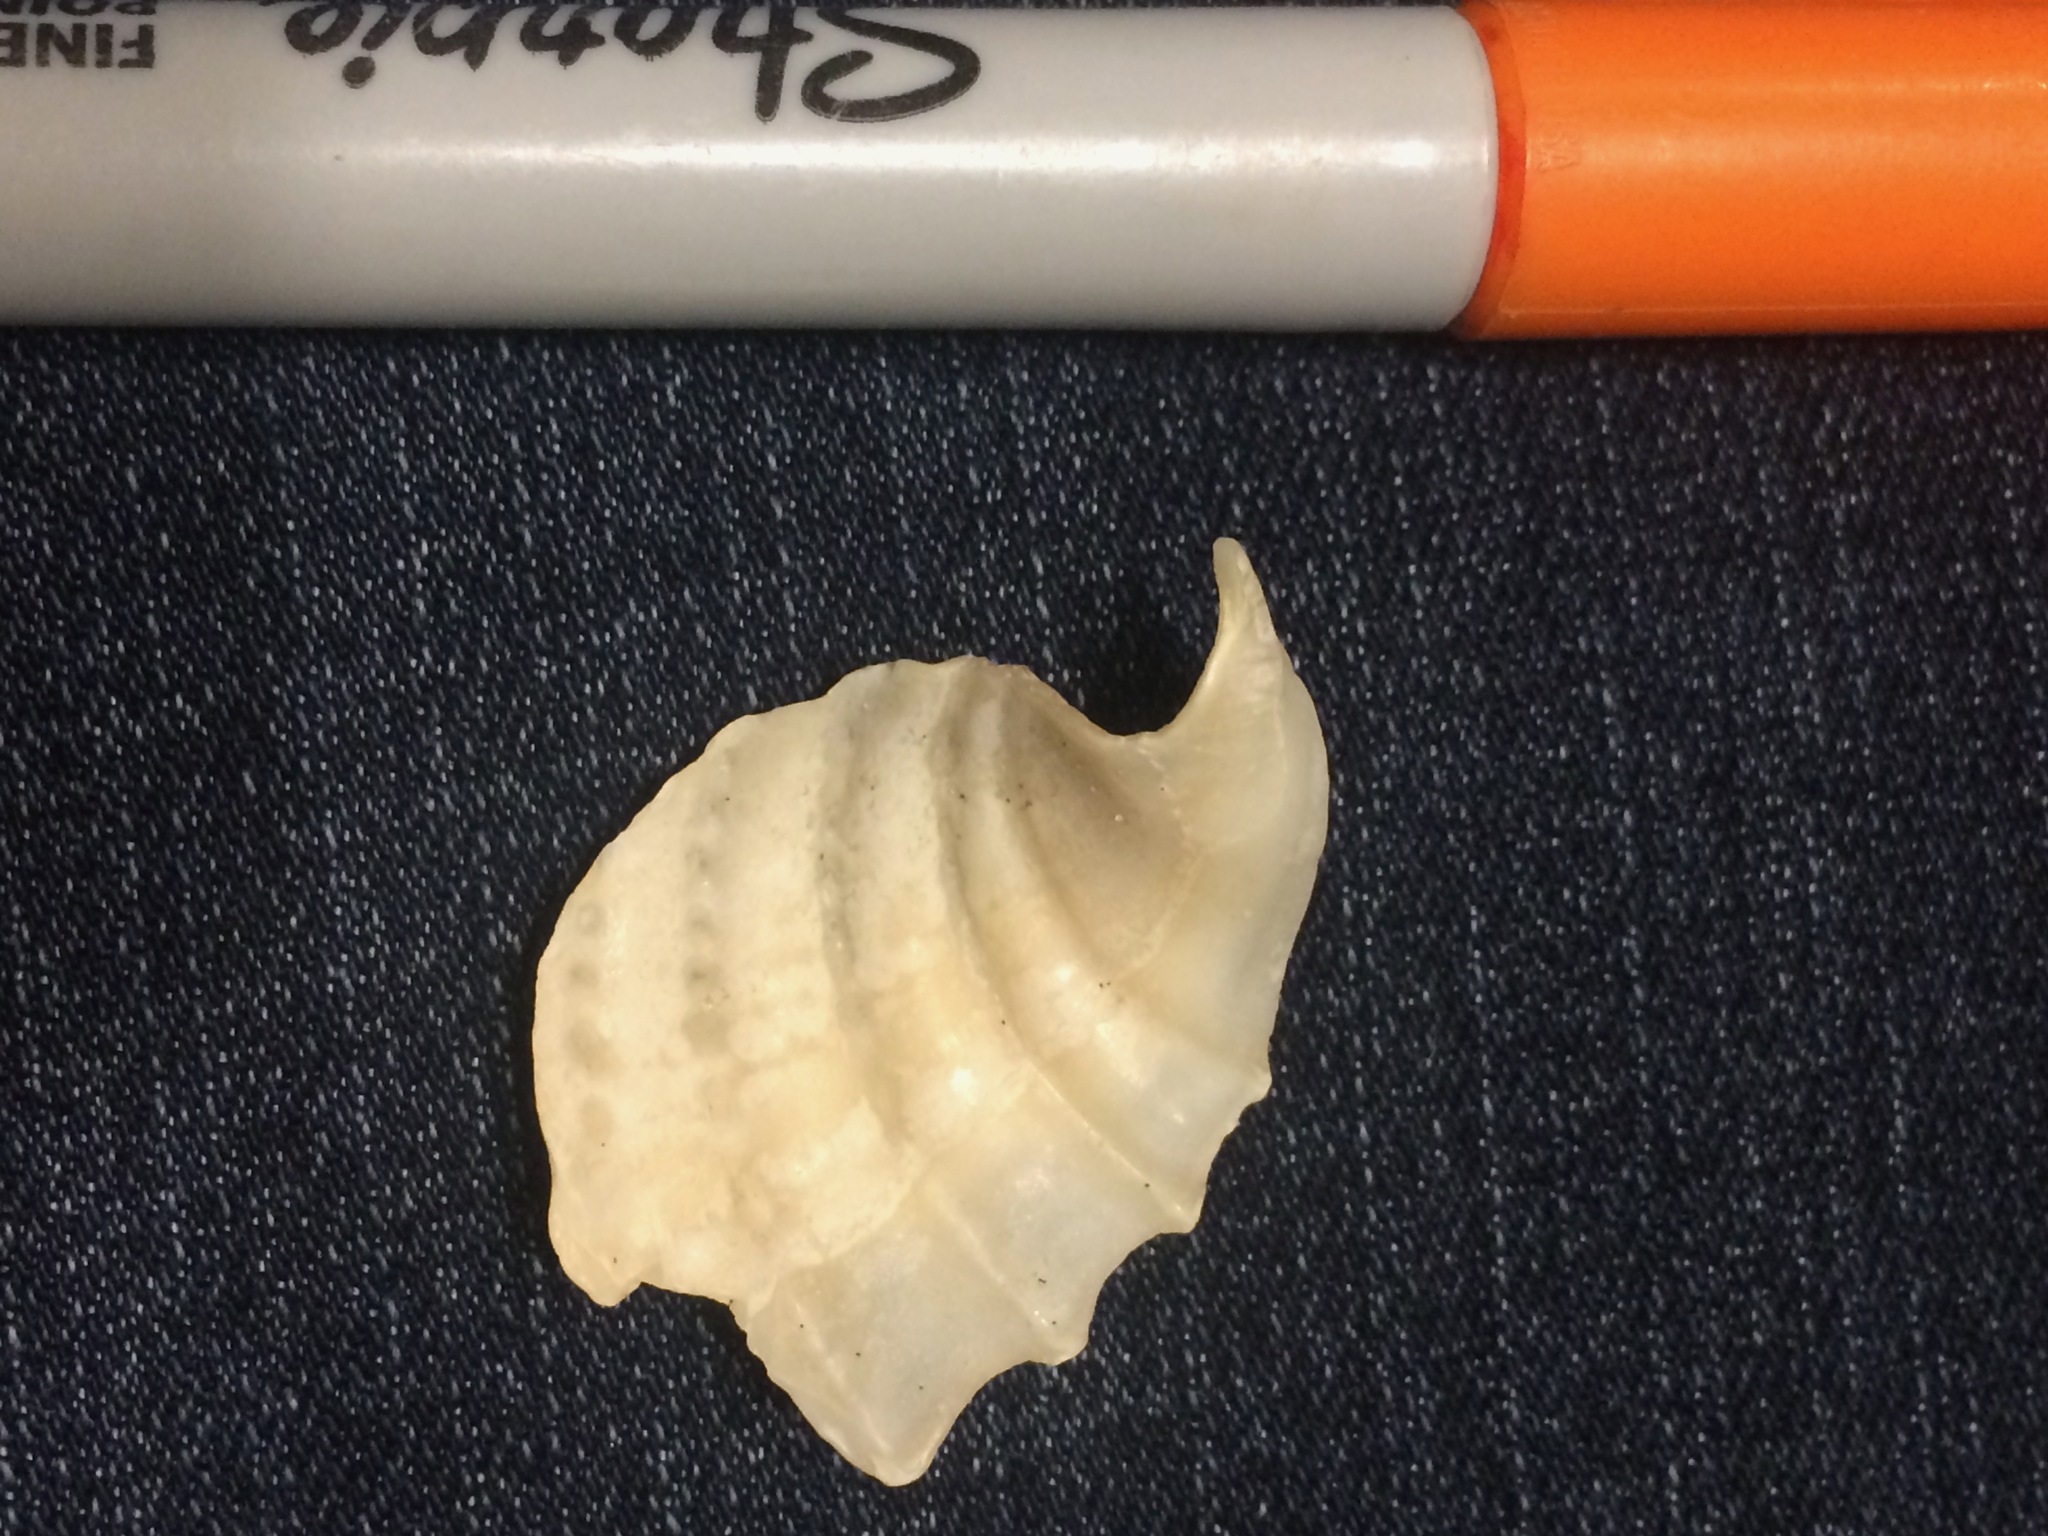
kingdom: Animalia
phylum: Mollusca
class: Bivalvia
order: Myida
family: Pholadidae
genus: Cyrtopleura
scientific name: Cyrtopleura costata
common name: Angel wing
